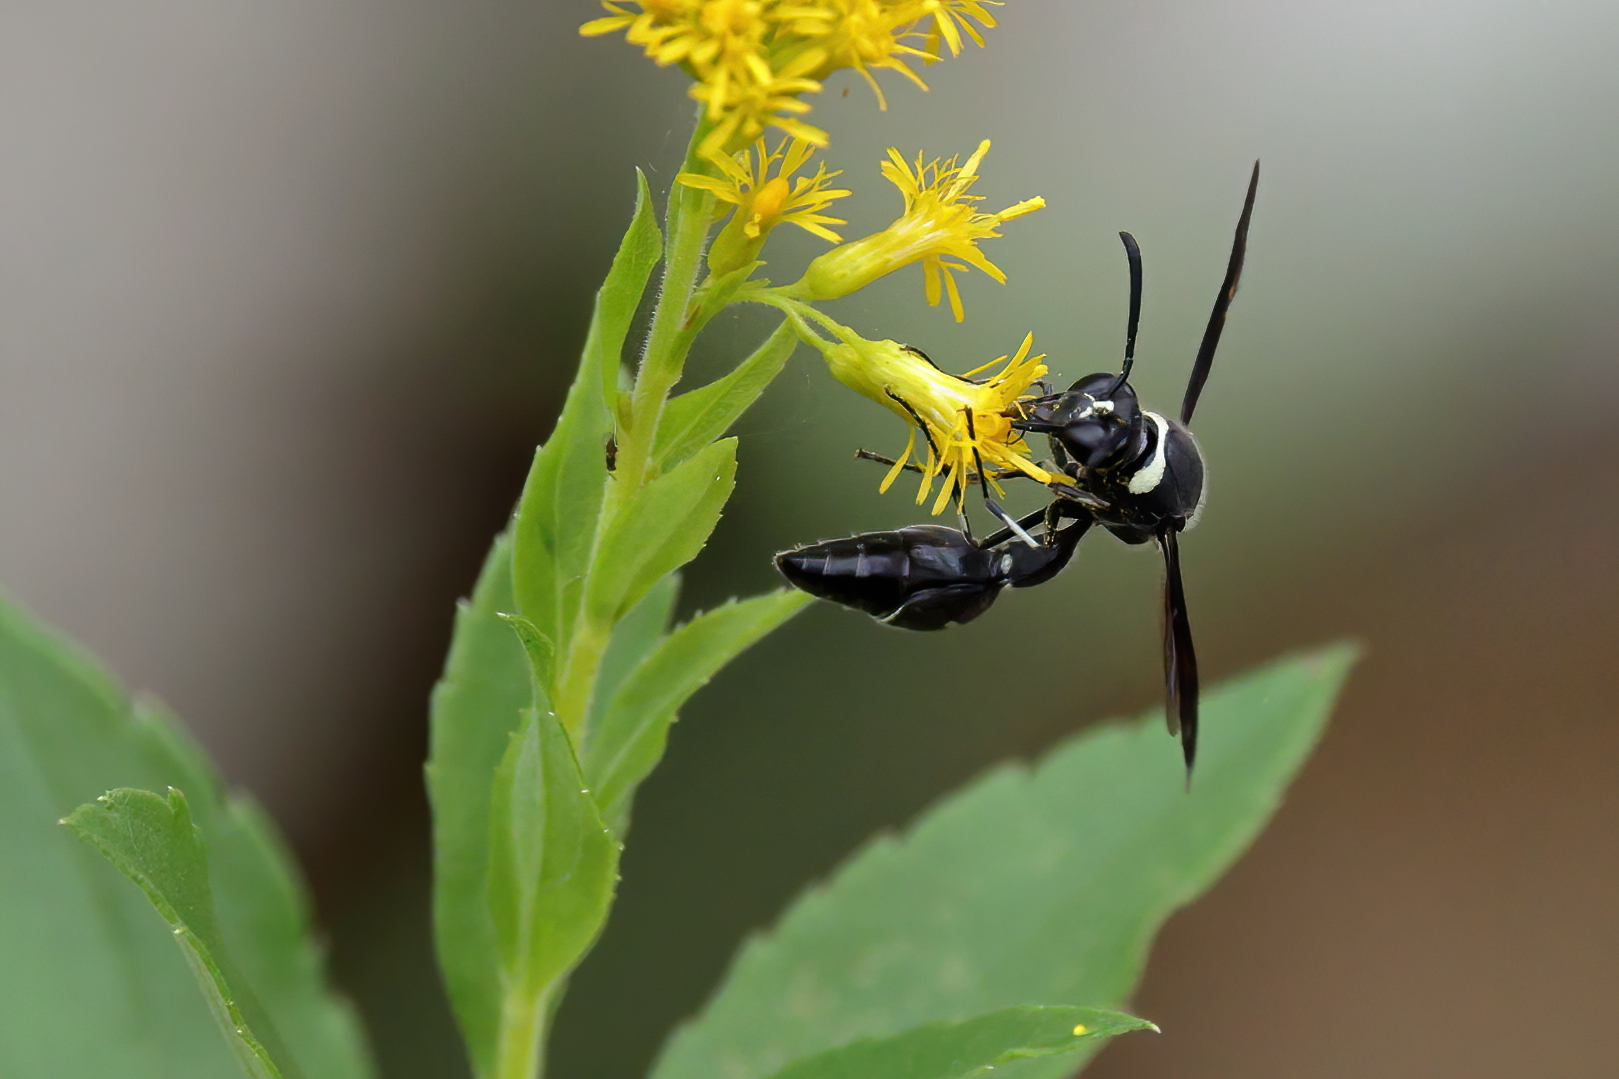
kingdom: Animalia
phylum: Arthropoda
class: Insecta
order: Hymenoptera
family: Vespidae
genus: Eumenes
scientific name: Eumenes fraternus
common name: Fraternal potter wasp
